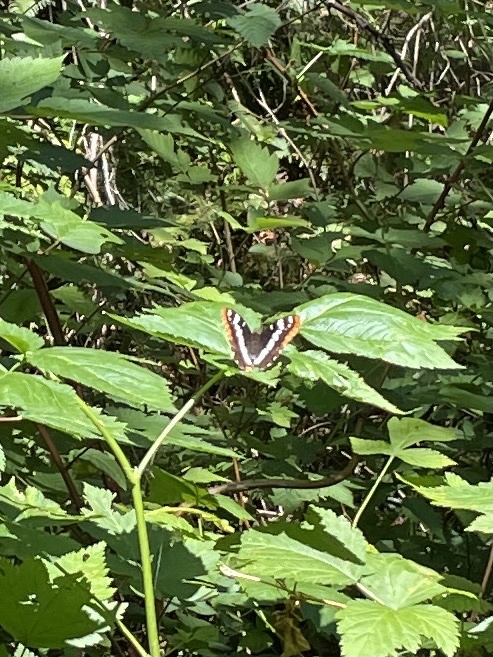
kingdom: Animalia
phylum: Arthropoda
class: Insecta
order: Lepidoptera
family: Nymphalidae
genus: Limenitis
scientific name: Limenitis lorquini
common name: Lorquin's admiral
